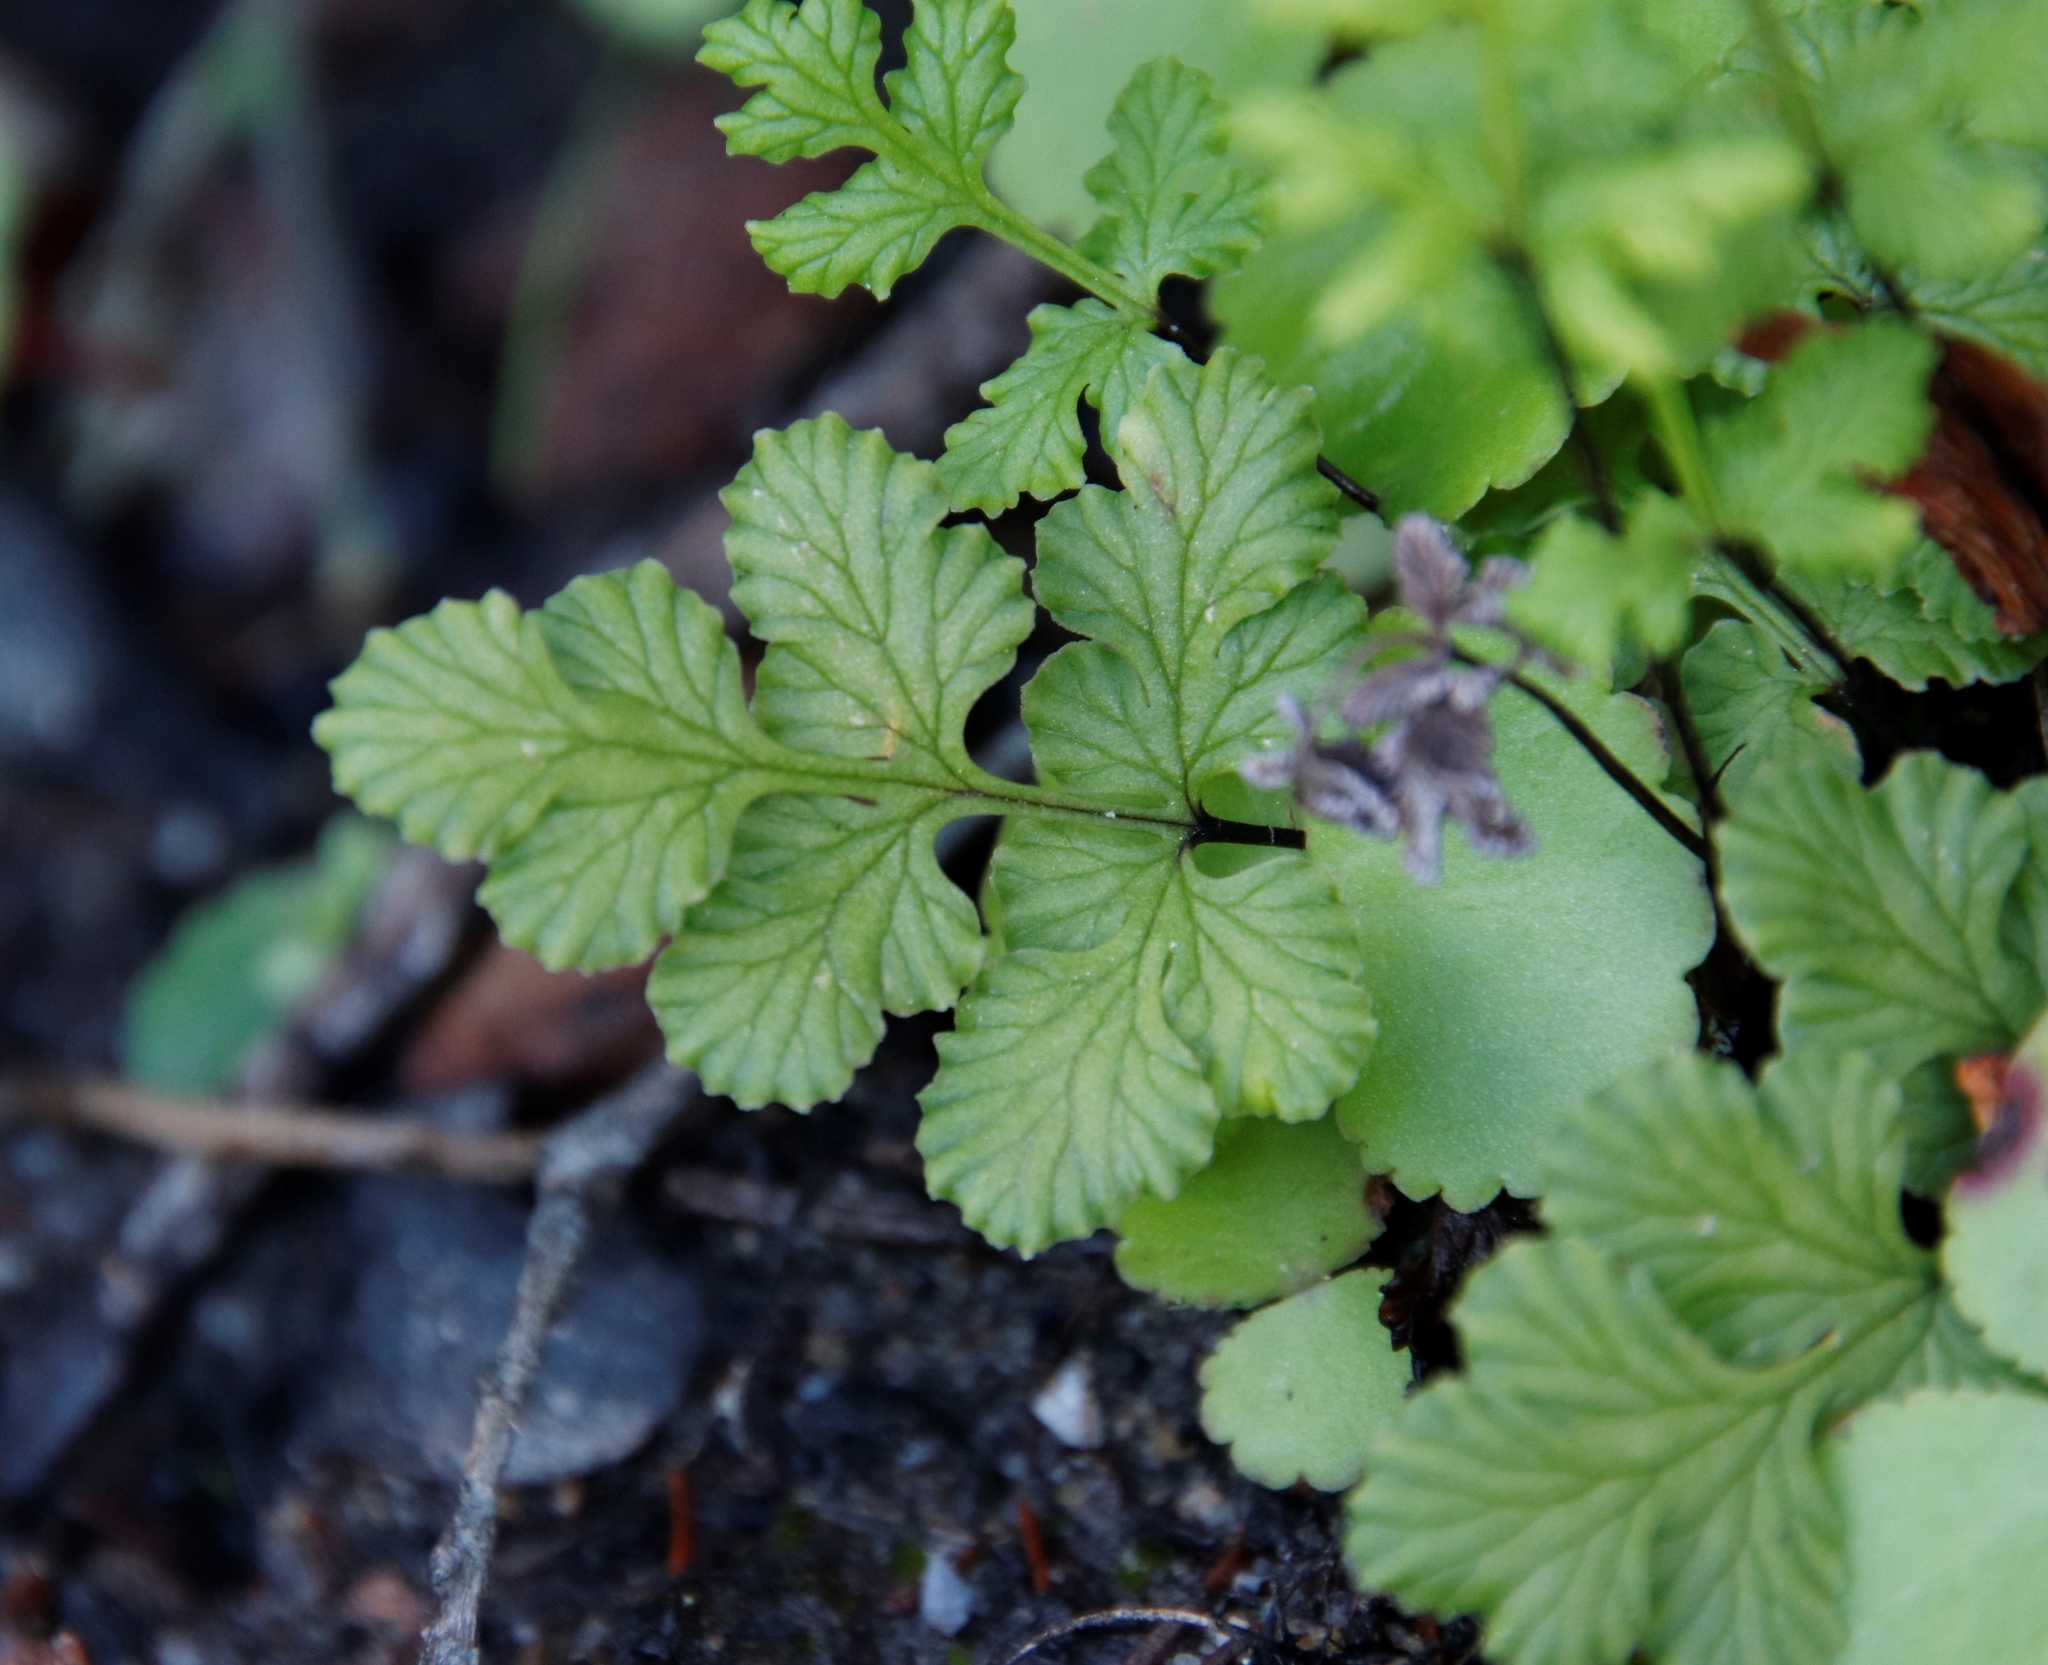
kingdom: Plantae
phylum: Tracheophyta
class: Polypodiopsida
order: Polypodiales
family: Pteridaceae
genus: Cheilanthes
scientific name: Cheilanthes capensis
